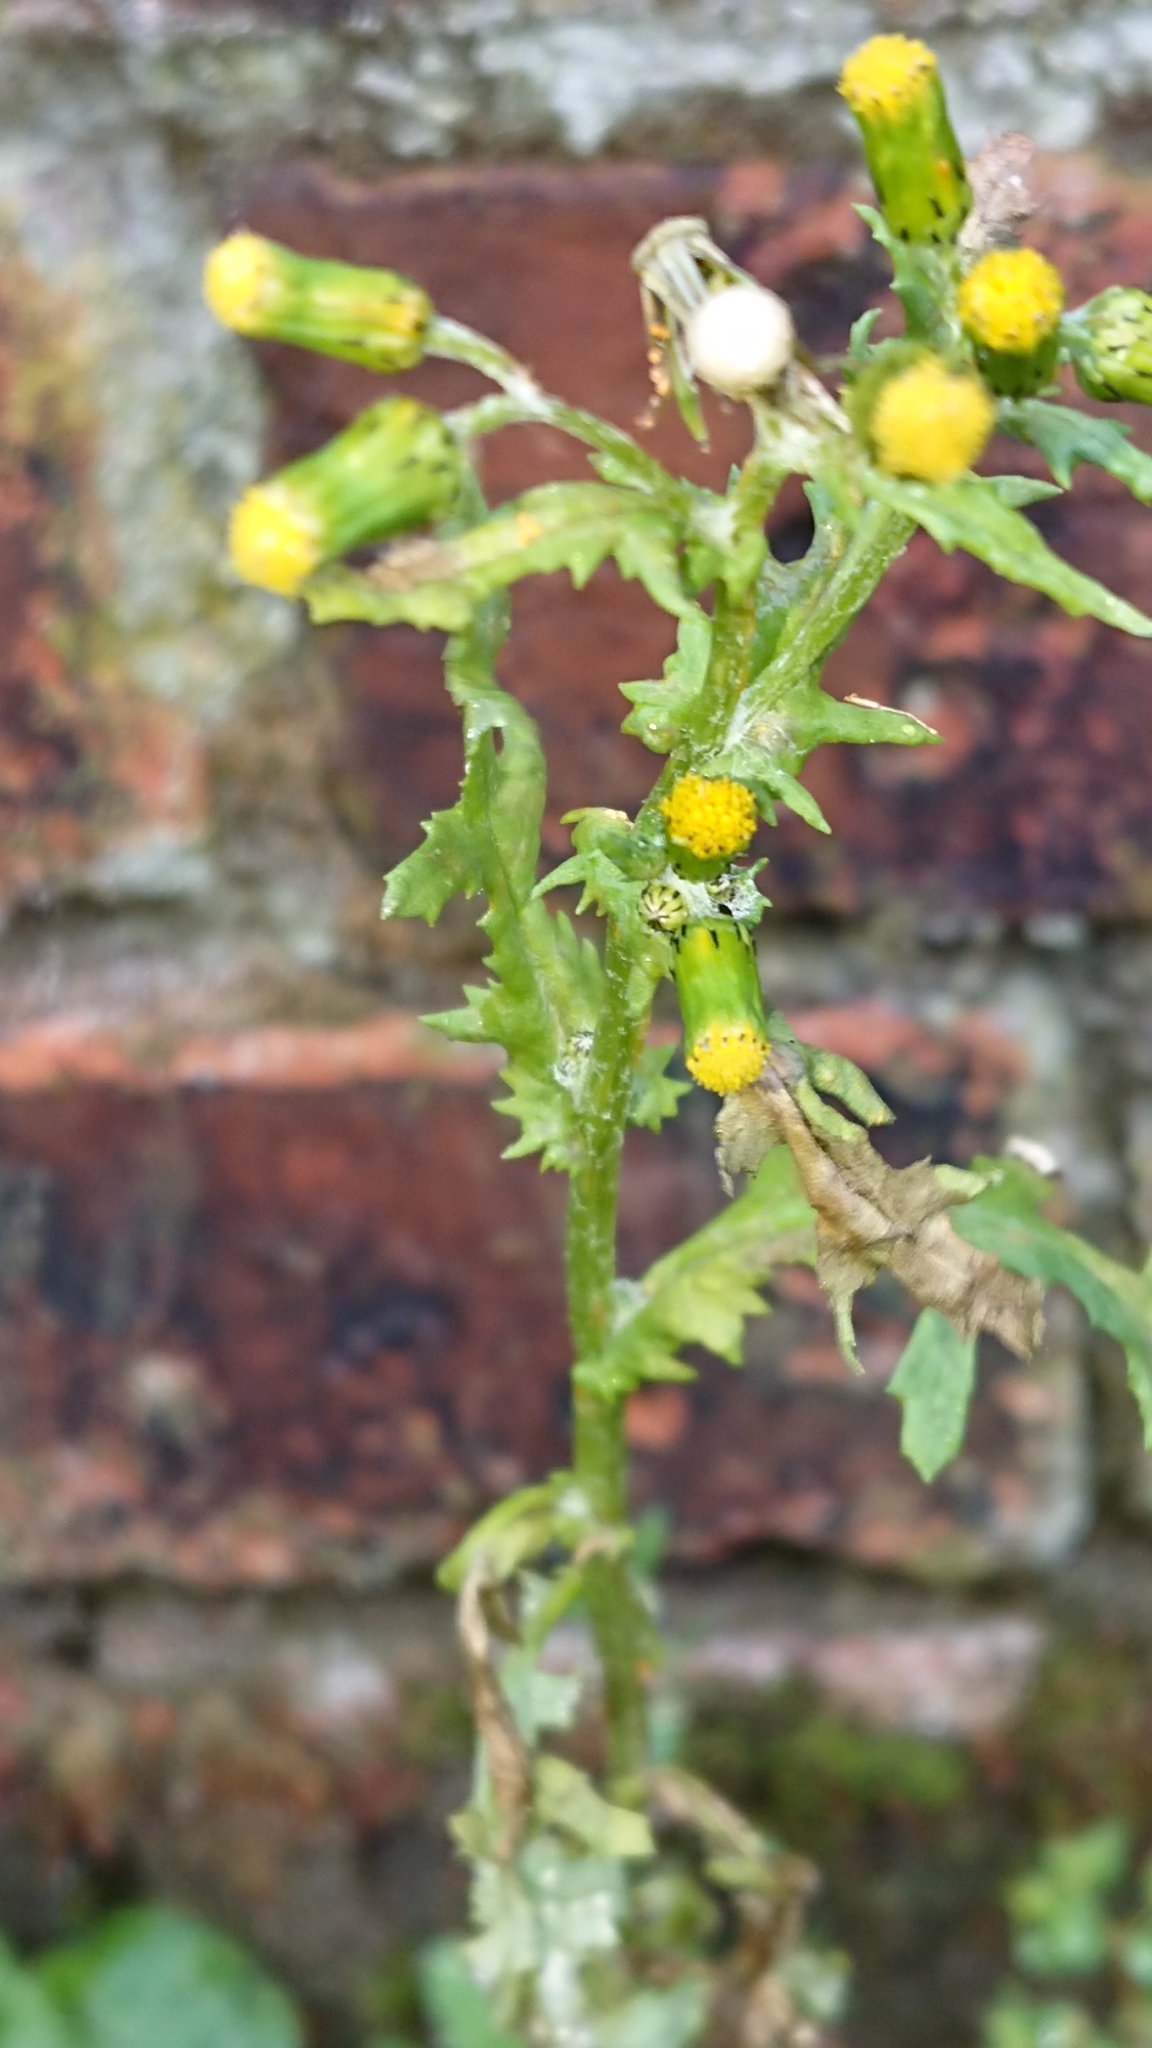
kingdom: Plantae
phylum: Tracheophyta
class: Magnoliopsida
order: Asterales
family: Asteraceae
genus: Senecio
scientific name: Senecio vulgaris
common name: Old-man-in-the-spring
